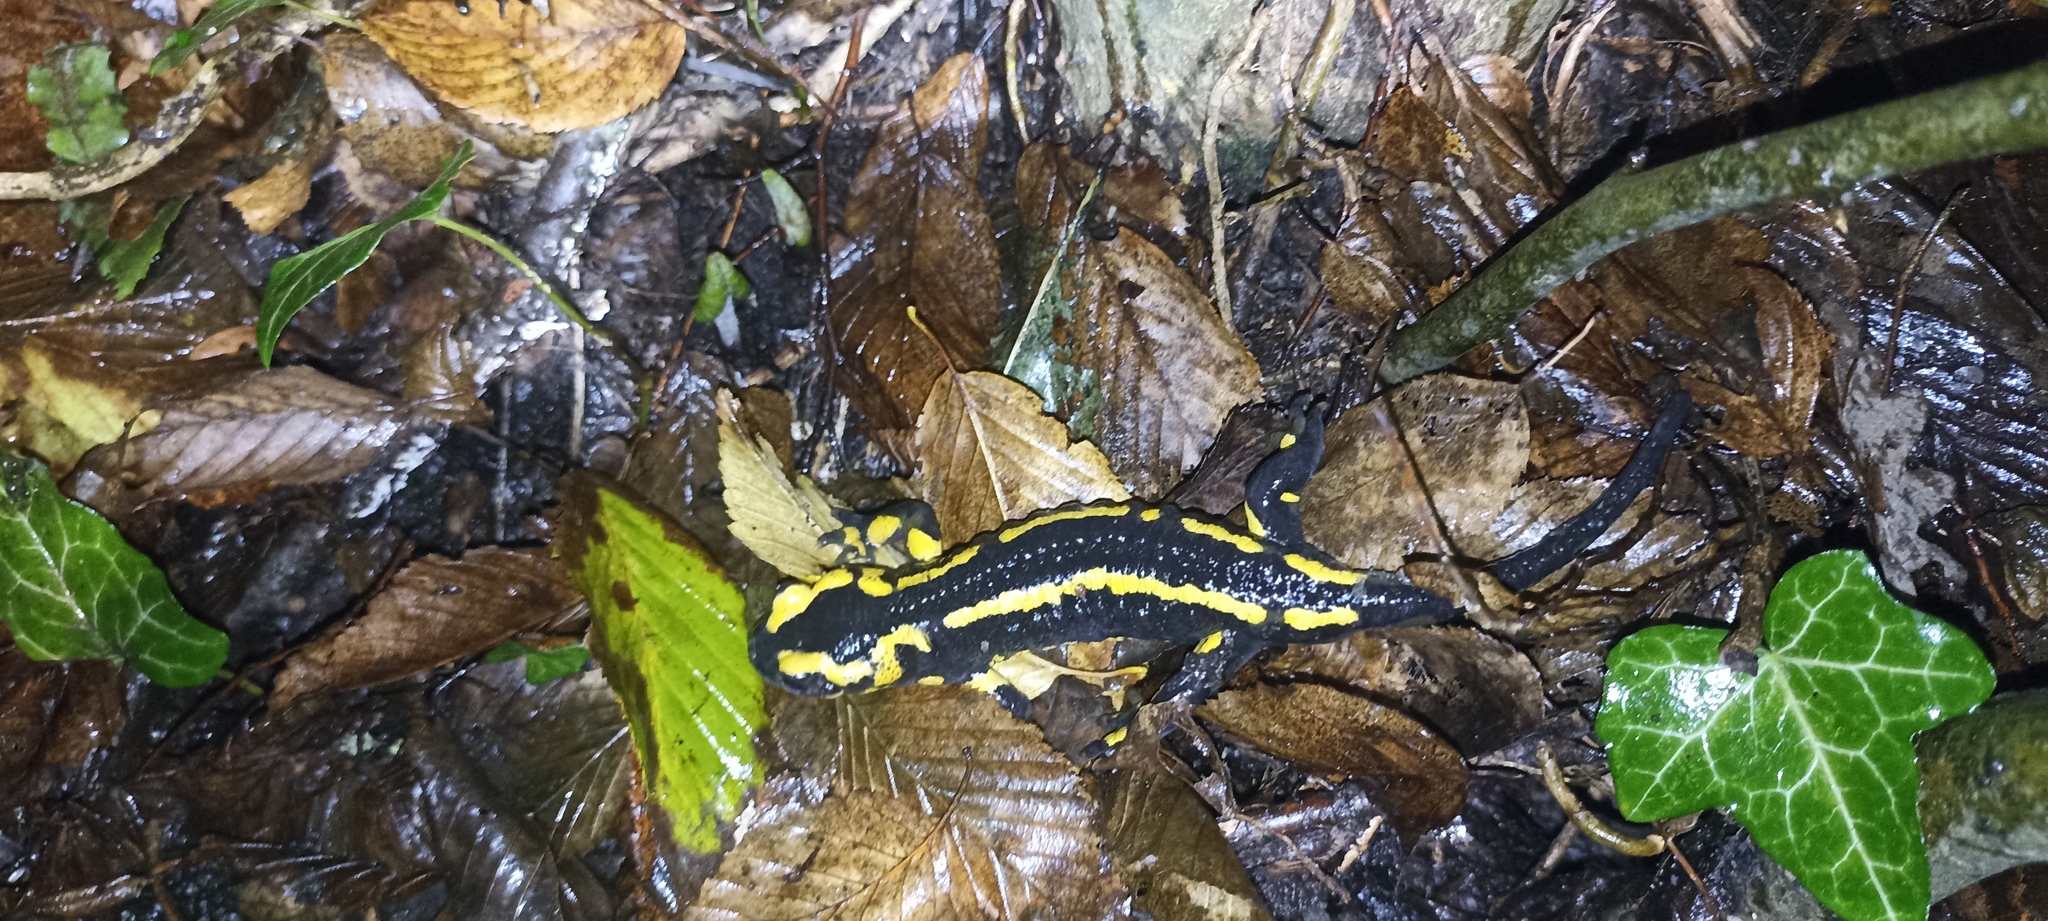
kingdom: Animalia
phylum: Chordata
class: Amphibia
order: Caudata
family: Salamandridae
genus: Salamandra
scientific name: Salamandra salamandra
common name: Fire salamander
